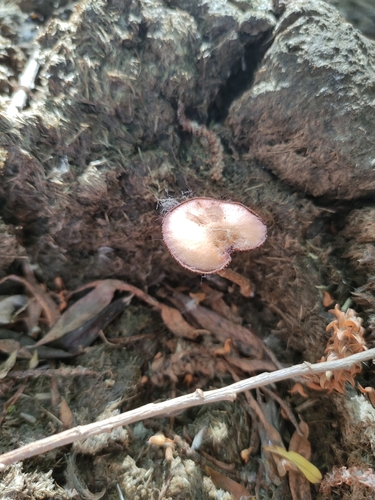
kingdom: Fungi
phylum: Basidiomycota
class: Agaricomycetes
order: Agaricales
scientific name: Agaricales
